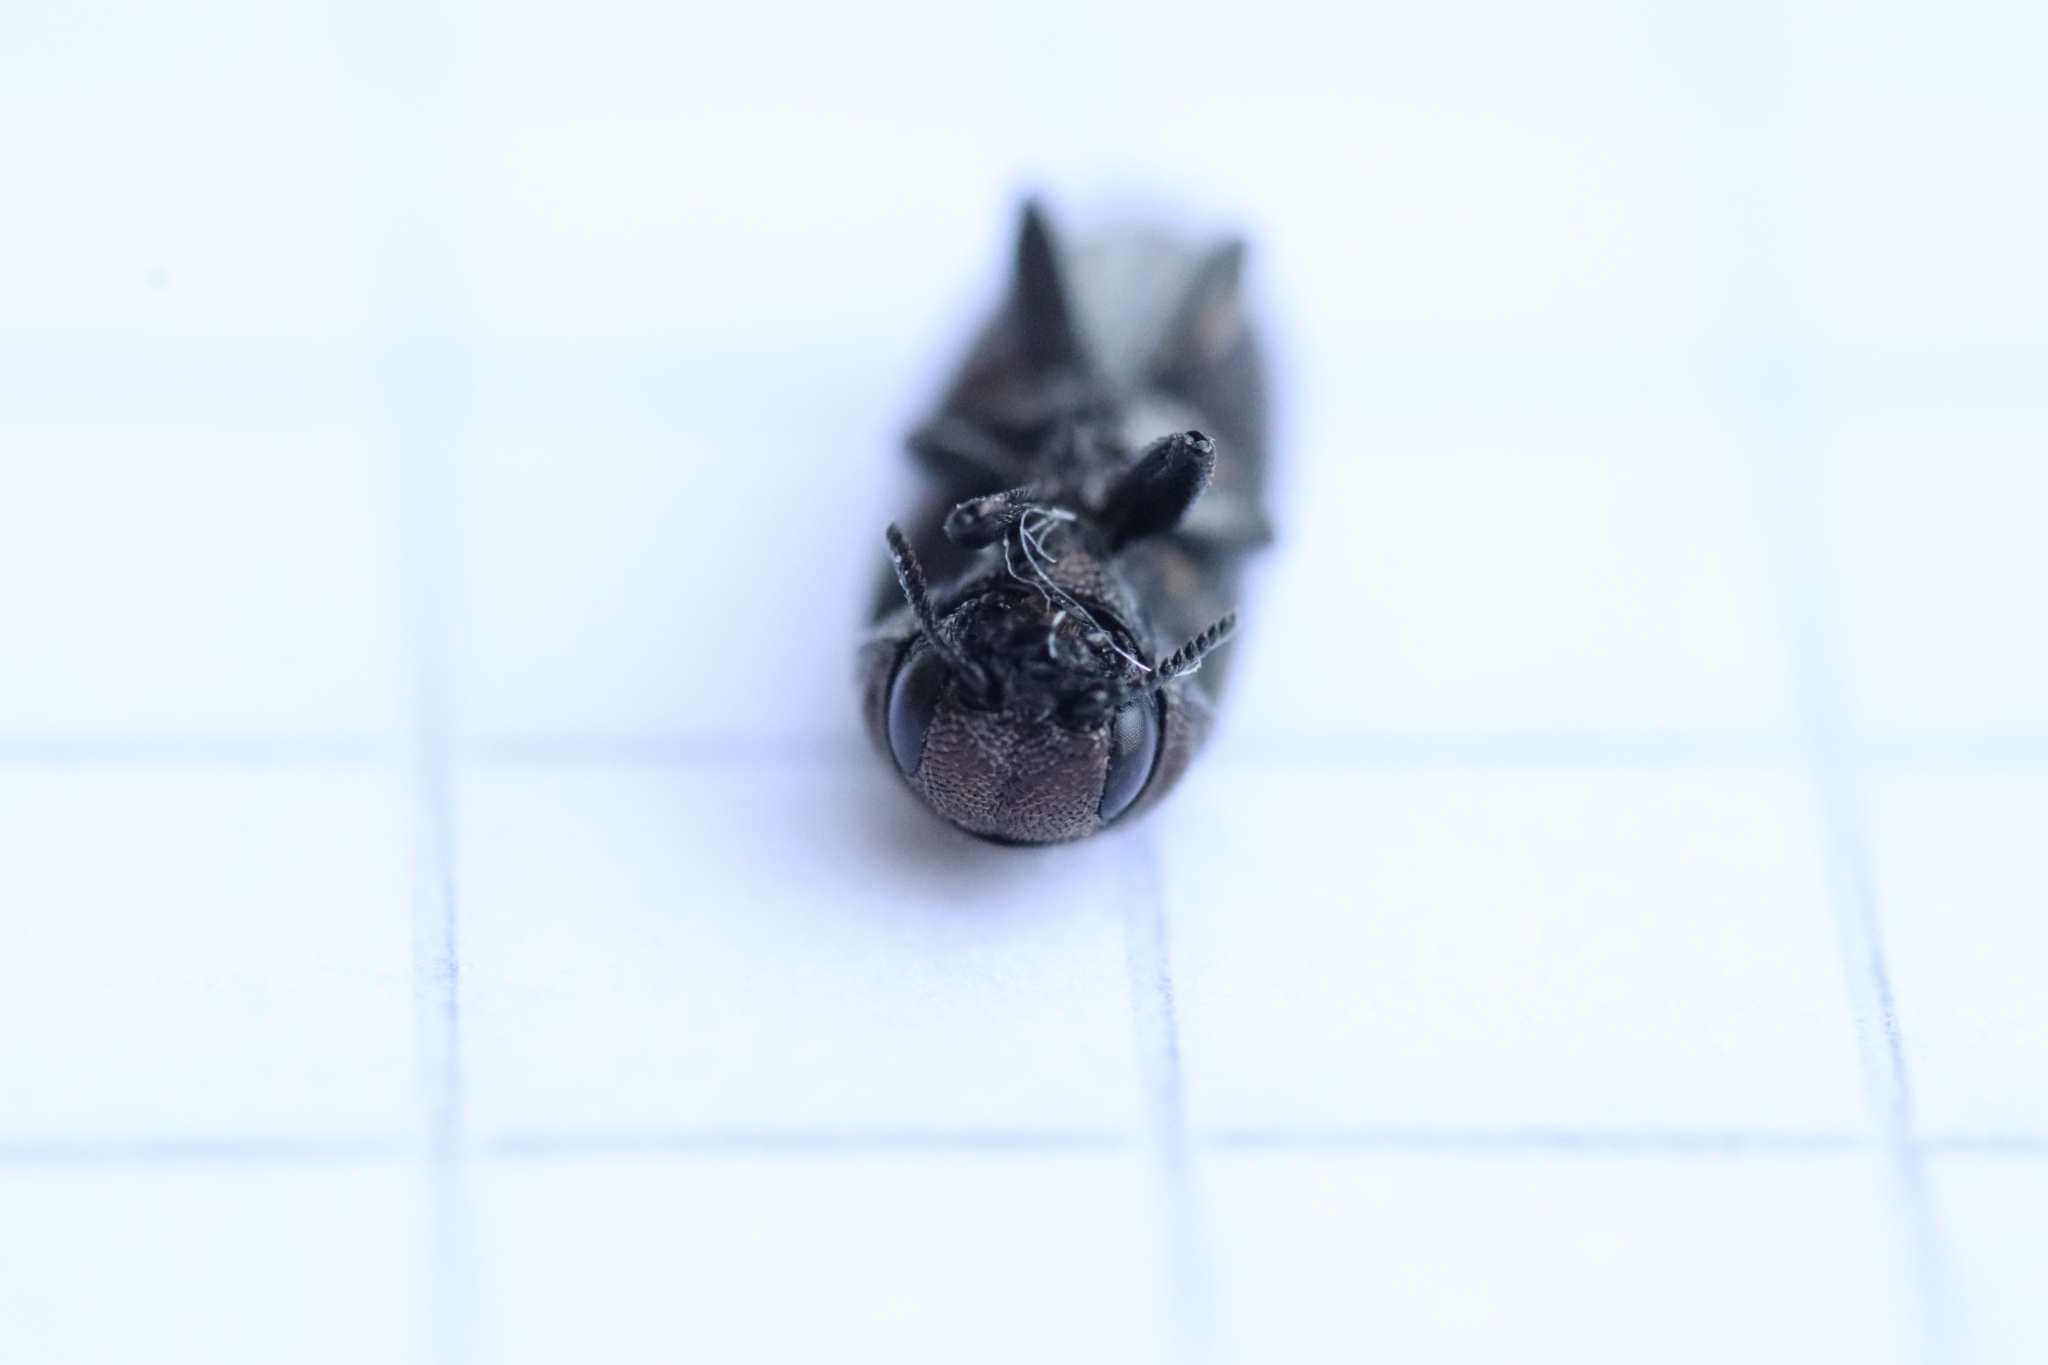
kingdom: Animalia
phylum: Arthropoda
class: Insecta
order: Coleoptera
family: Buprestidae
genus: Coraebus
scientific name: Coraebus elatus
